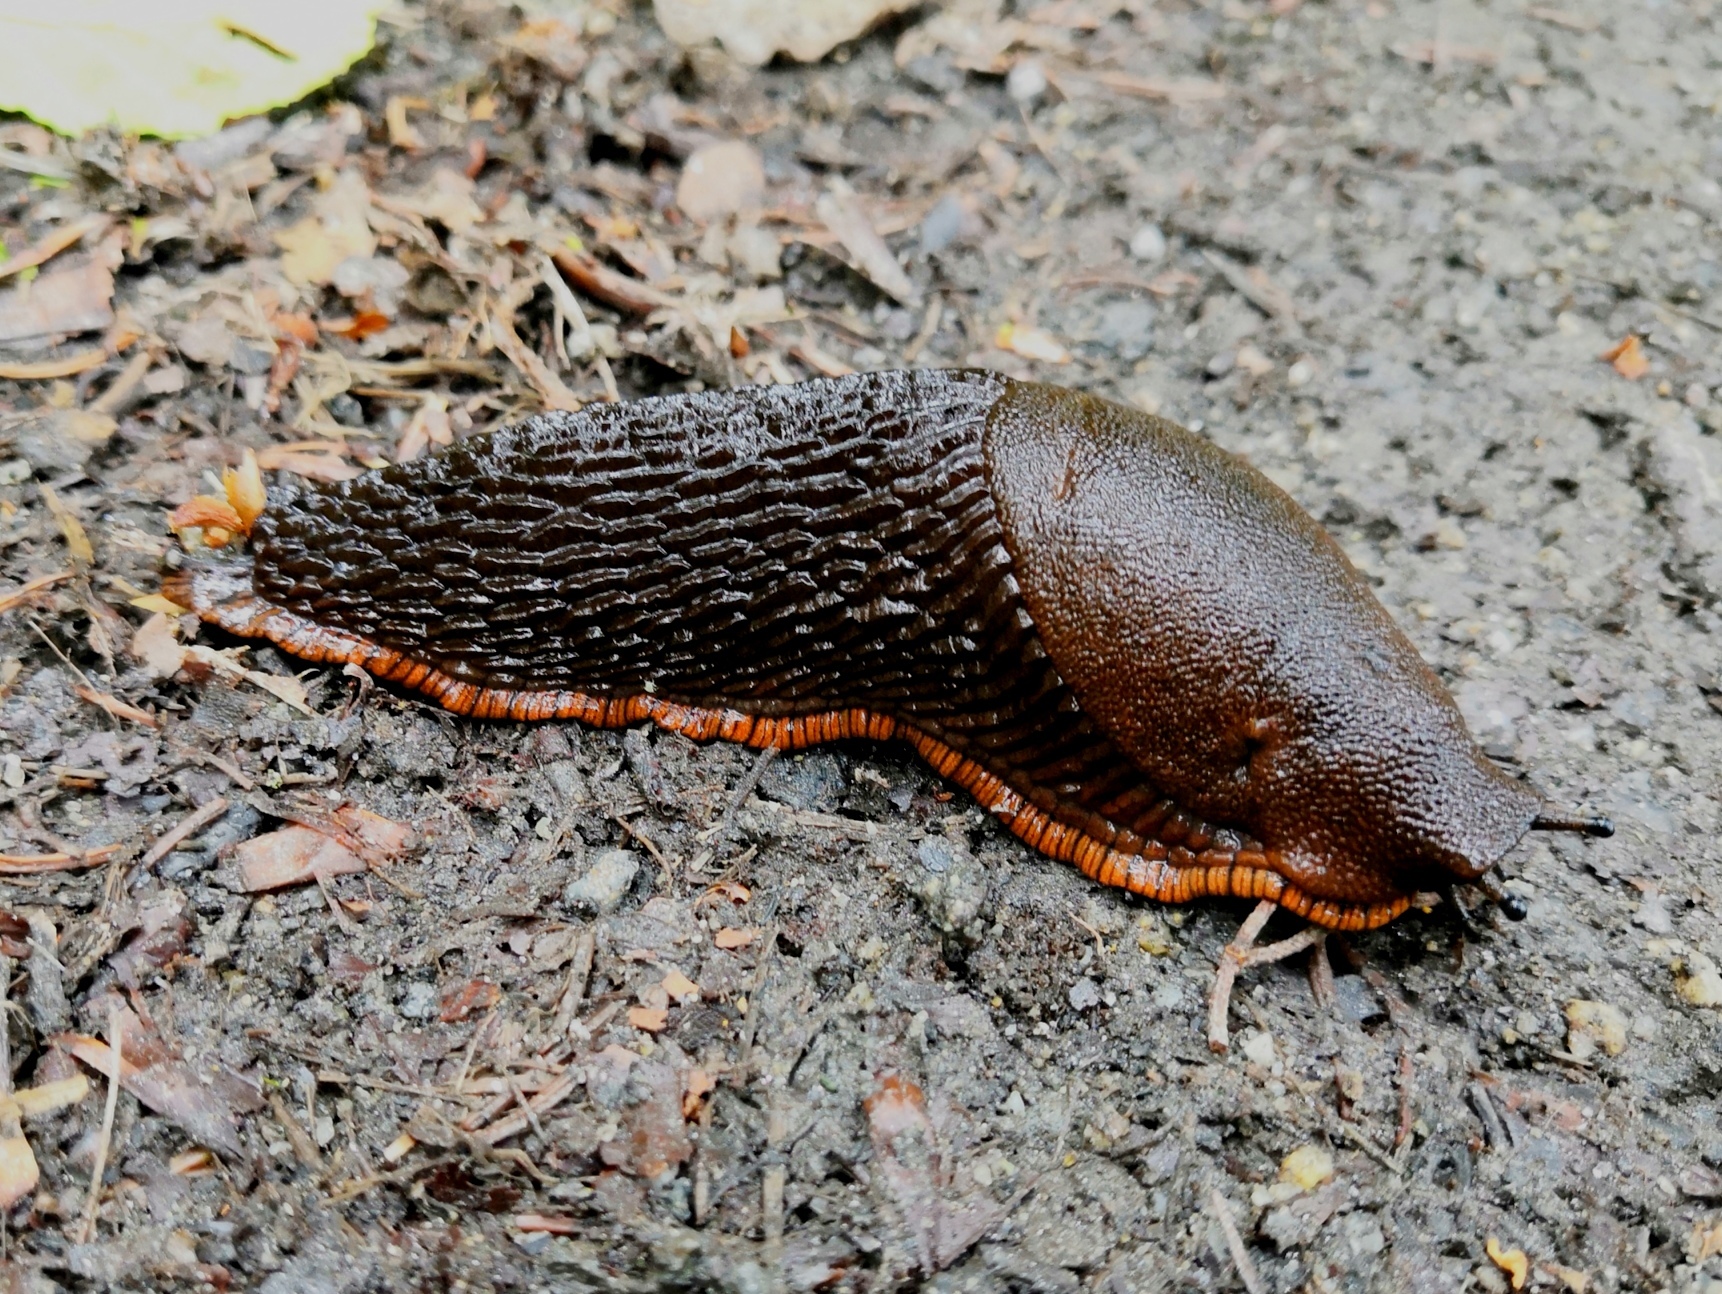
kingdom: Animalia
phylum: Mollusca
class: Gastropoda
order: Stylommatophora
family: Arionidae
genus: Arion
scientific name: Arion rufus
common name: Chocolate arion
